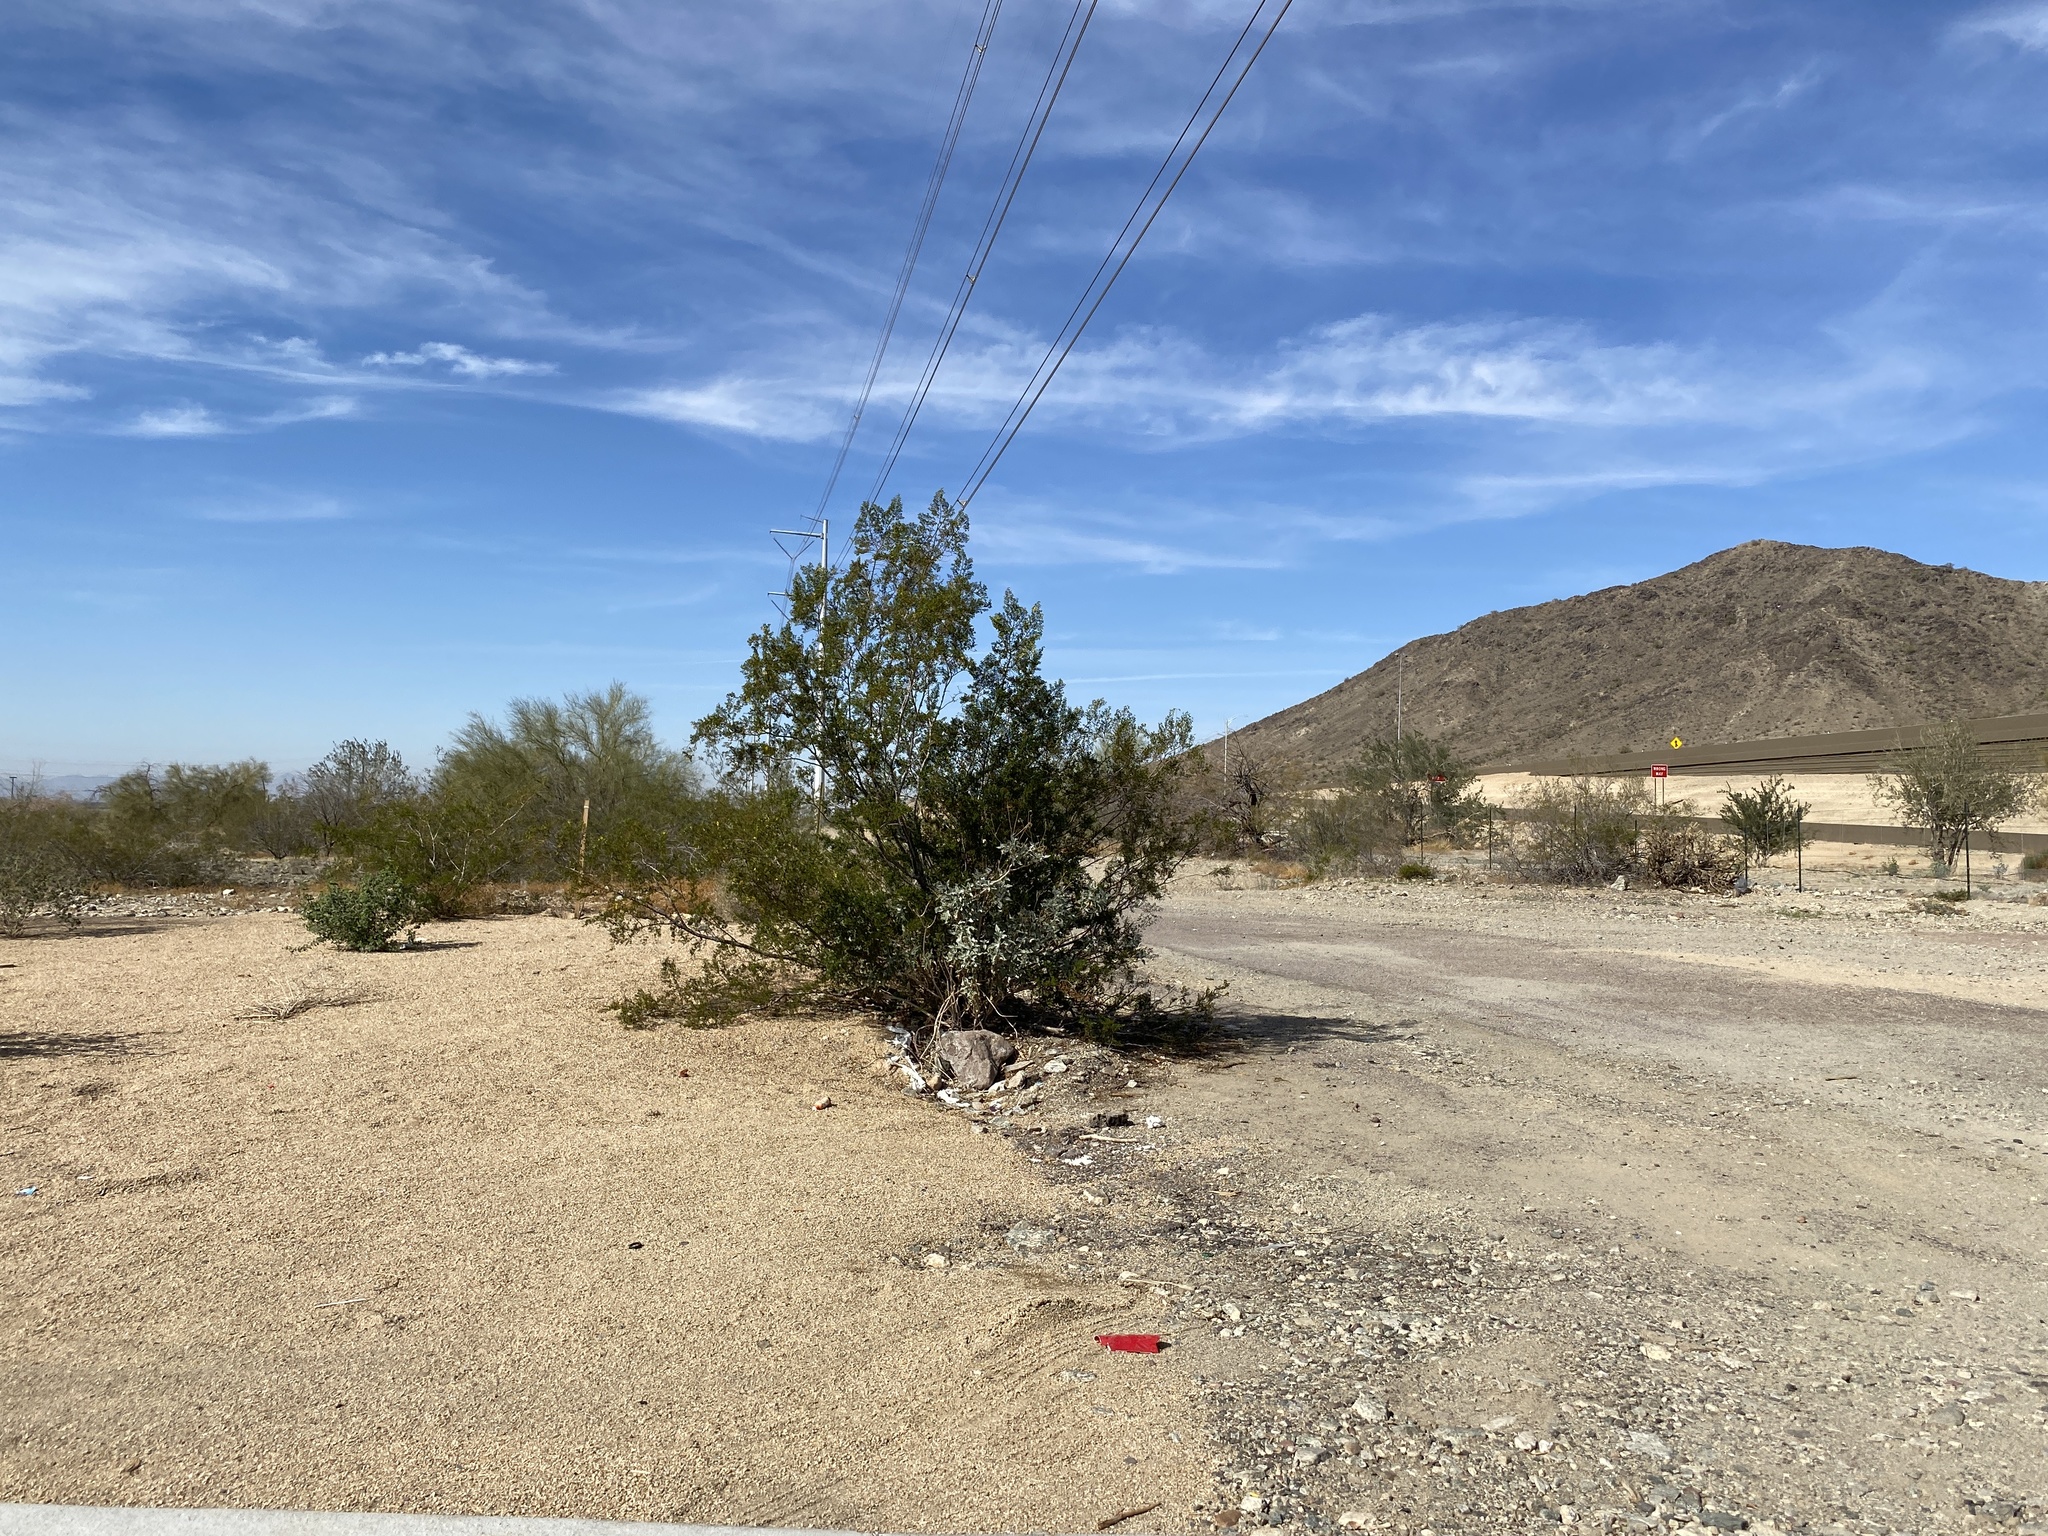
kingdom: Plantae
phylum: Tracheophyta
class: Magnoliopsida
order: Zygophyllales
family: Zygophyllaceae
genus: Larrea
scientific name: Larrea tridentata
